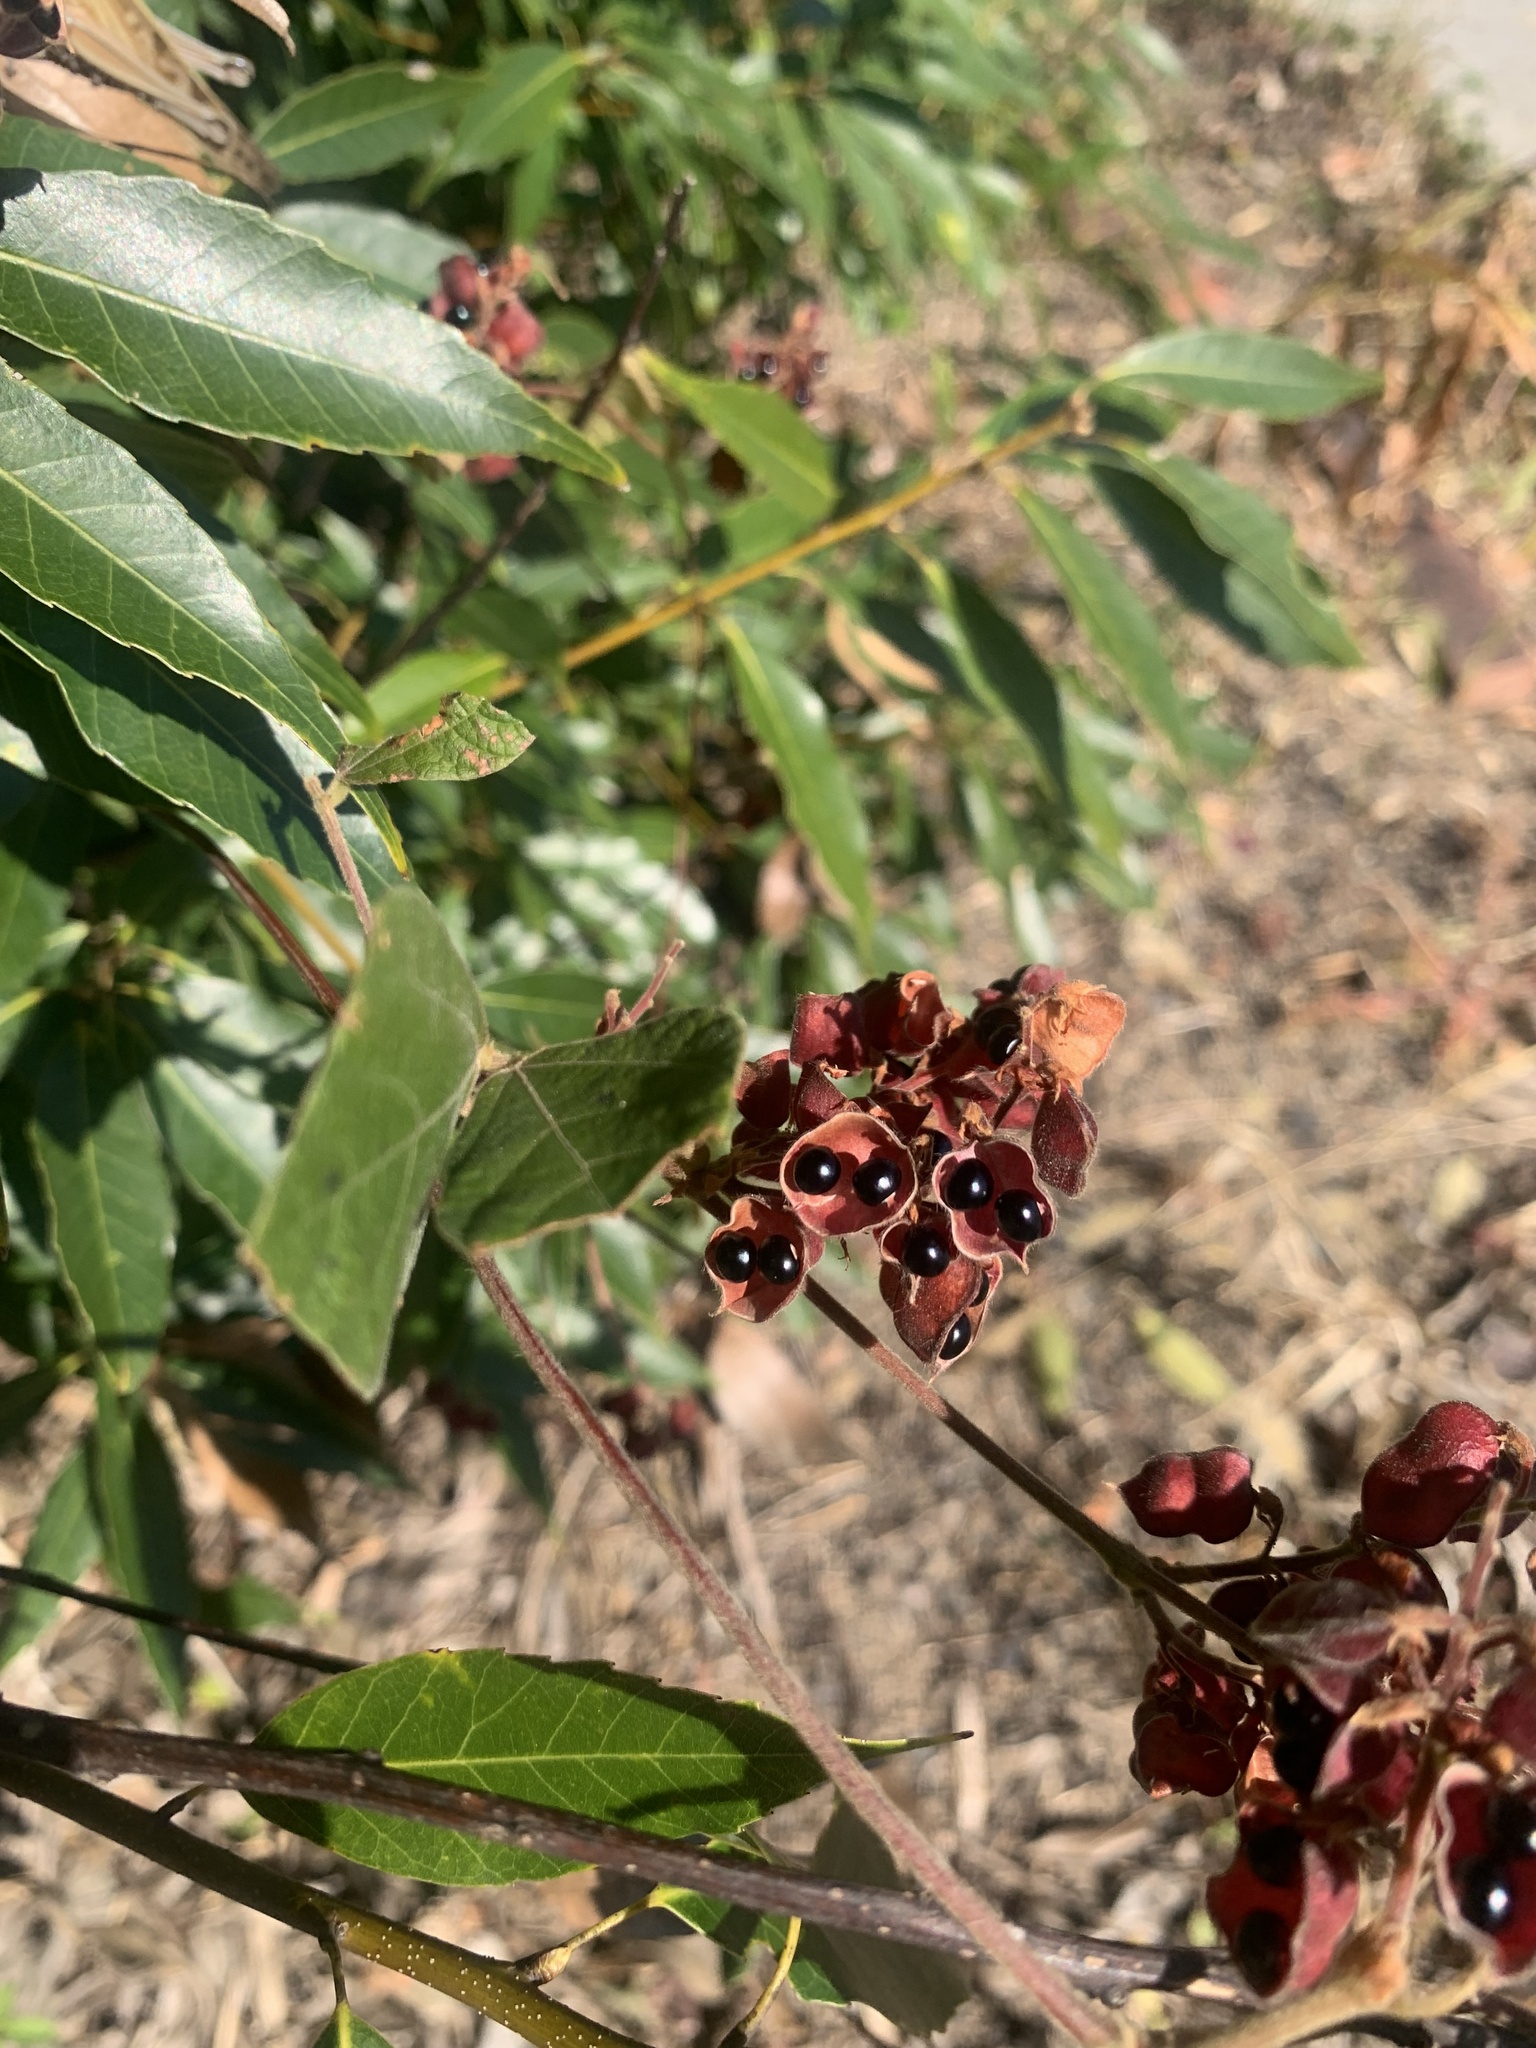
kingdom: Plantae
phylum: Tracheophyta
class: Magnoliopsida
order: Fabales
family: Fabaceae
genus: Rhynchosia
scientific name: Rhynchosia volubilis
